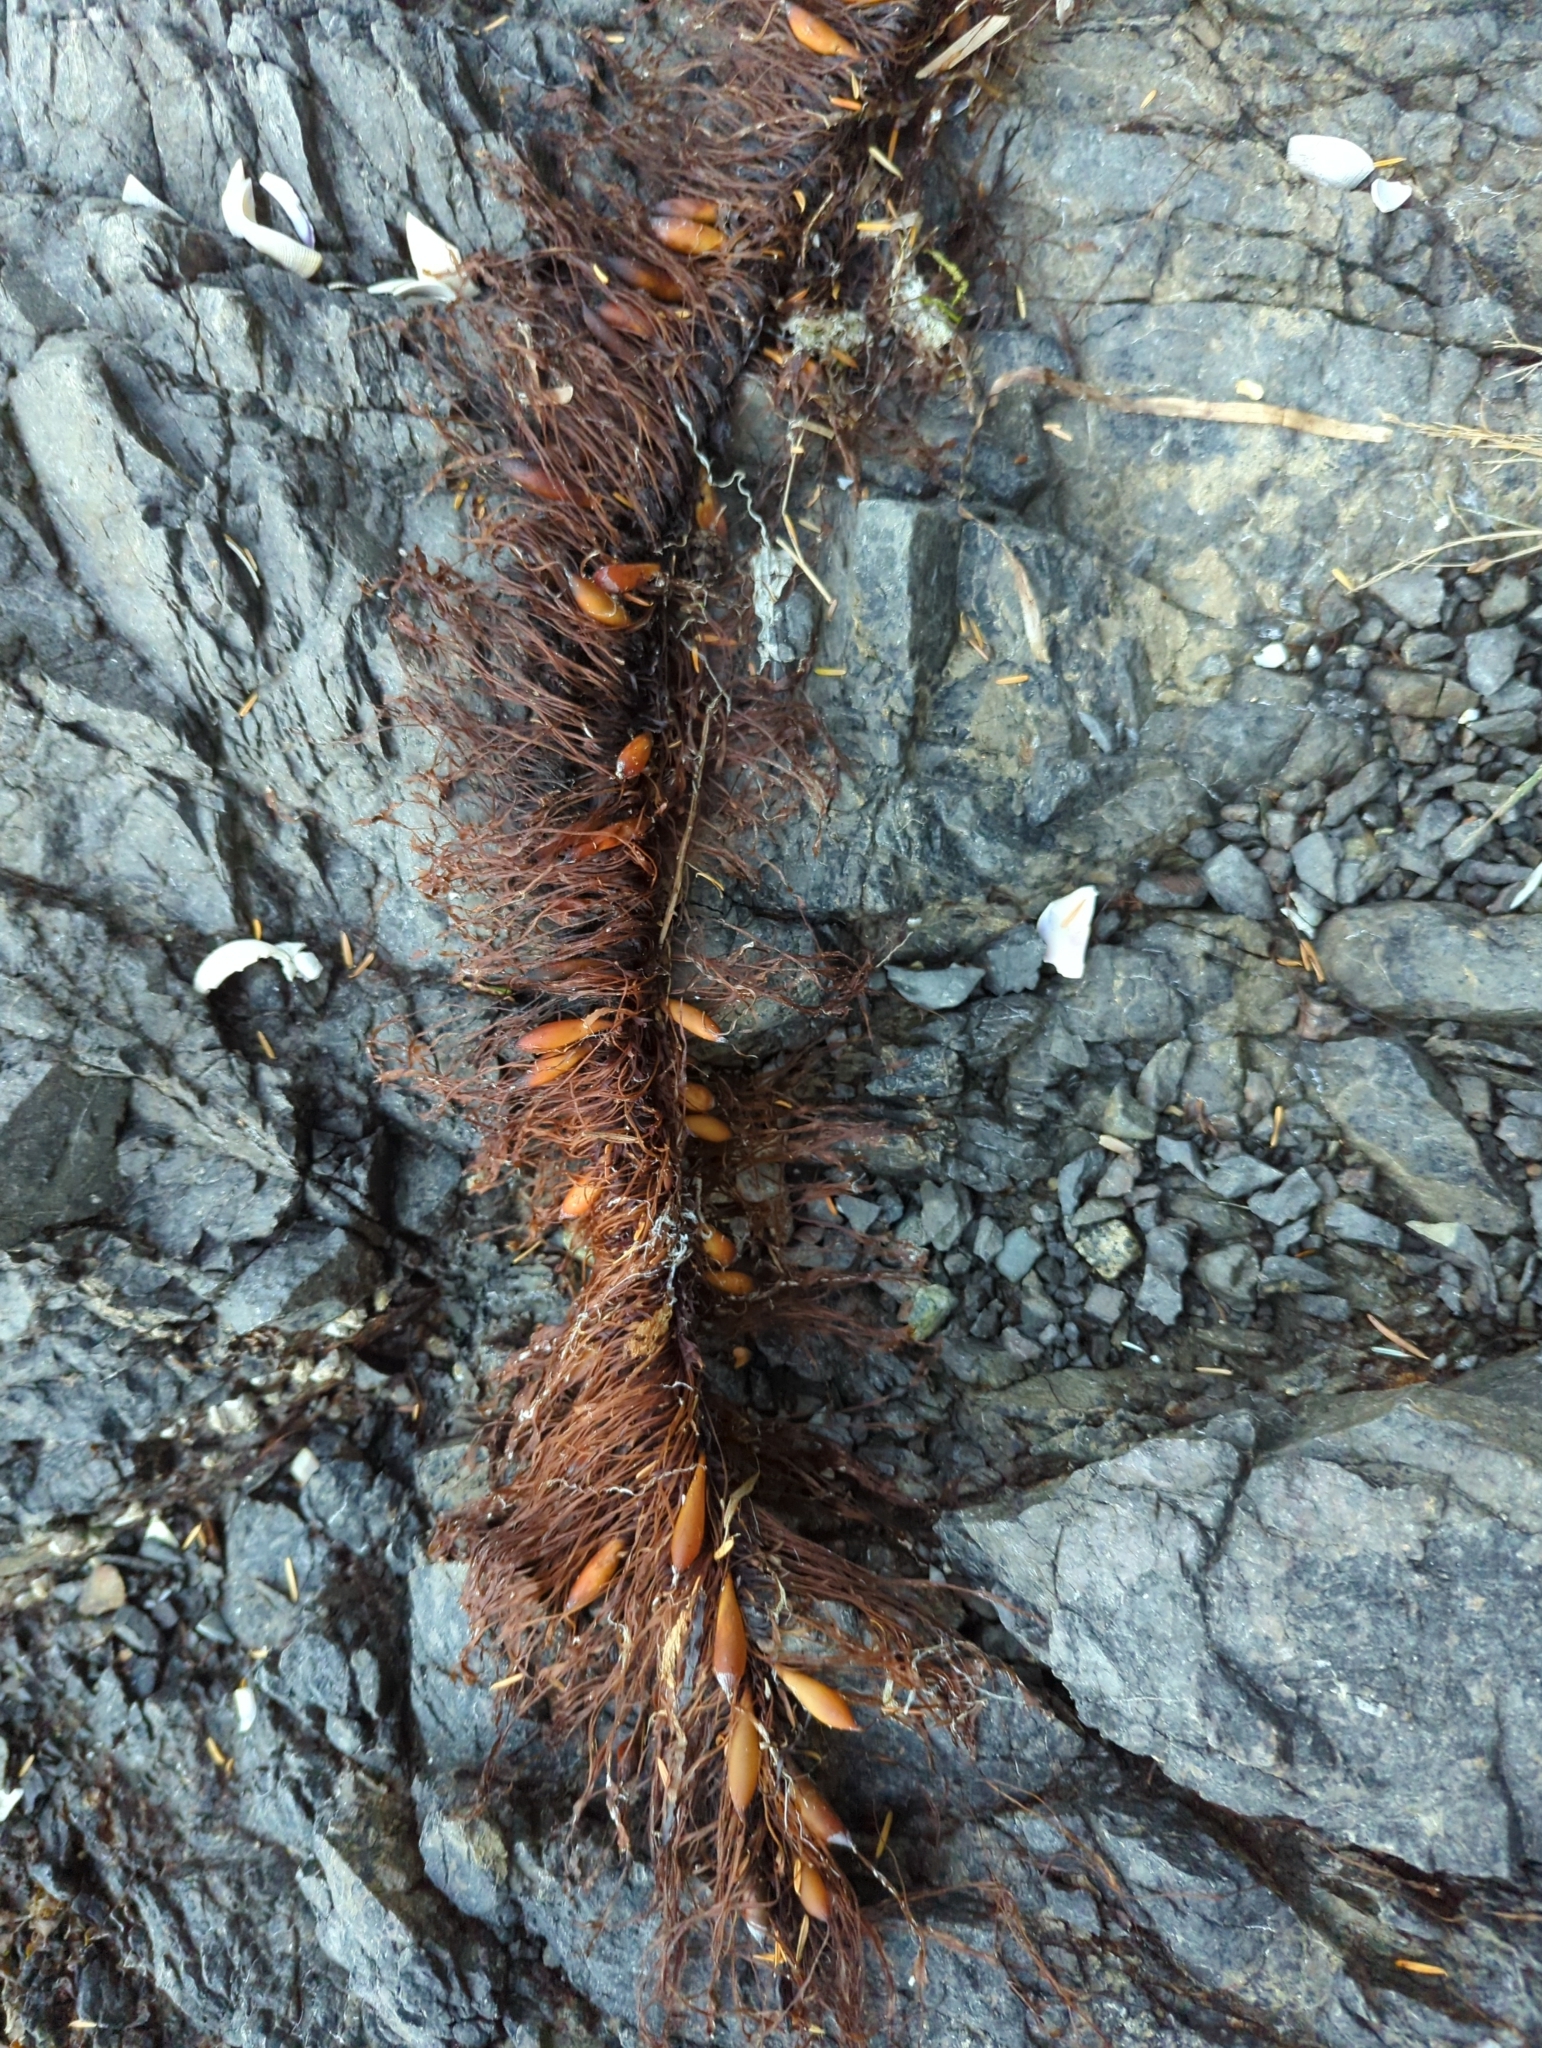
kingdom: Chromista
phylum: Ochrophyta
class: Phaeophyceae
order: Laminariales
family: Lessoniaceae
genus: Egregia
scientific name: Egregia menziesii
